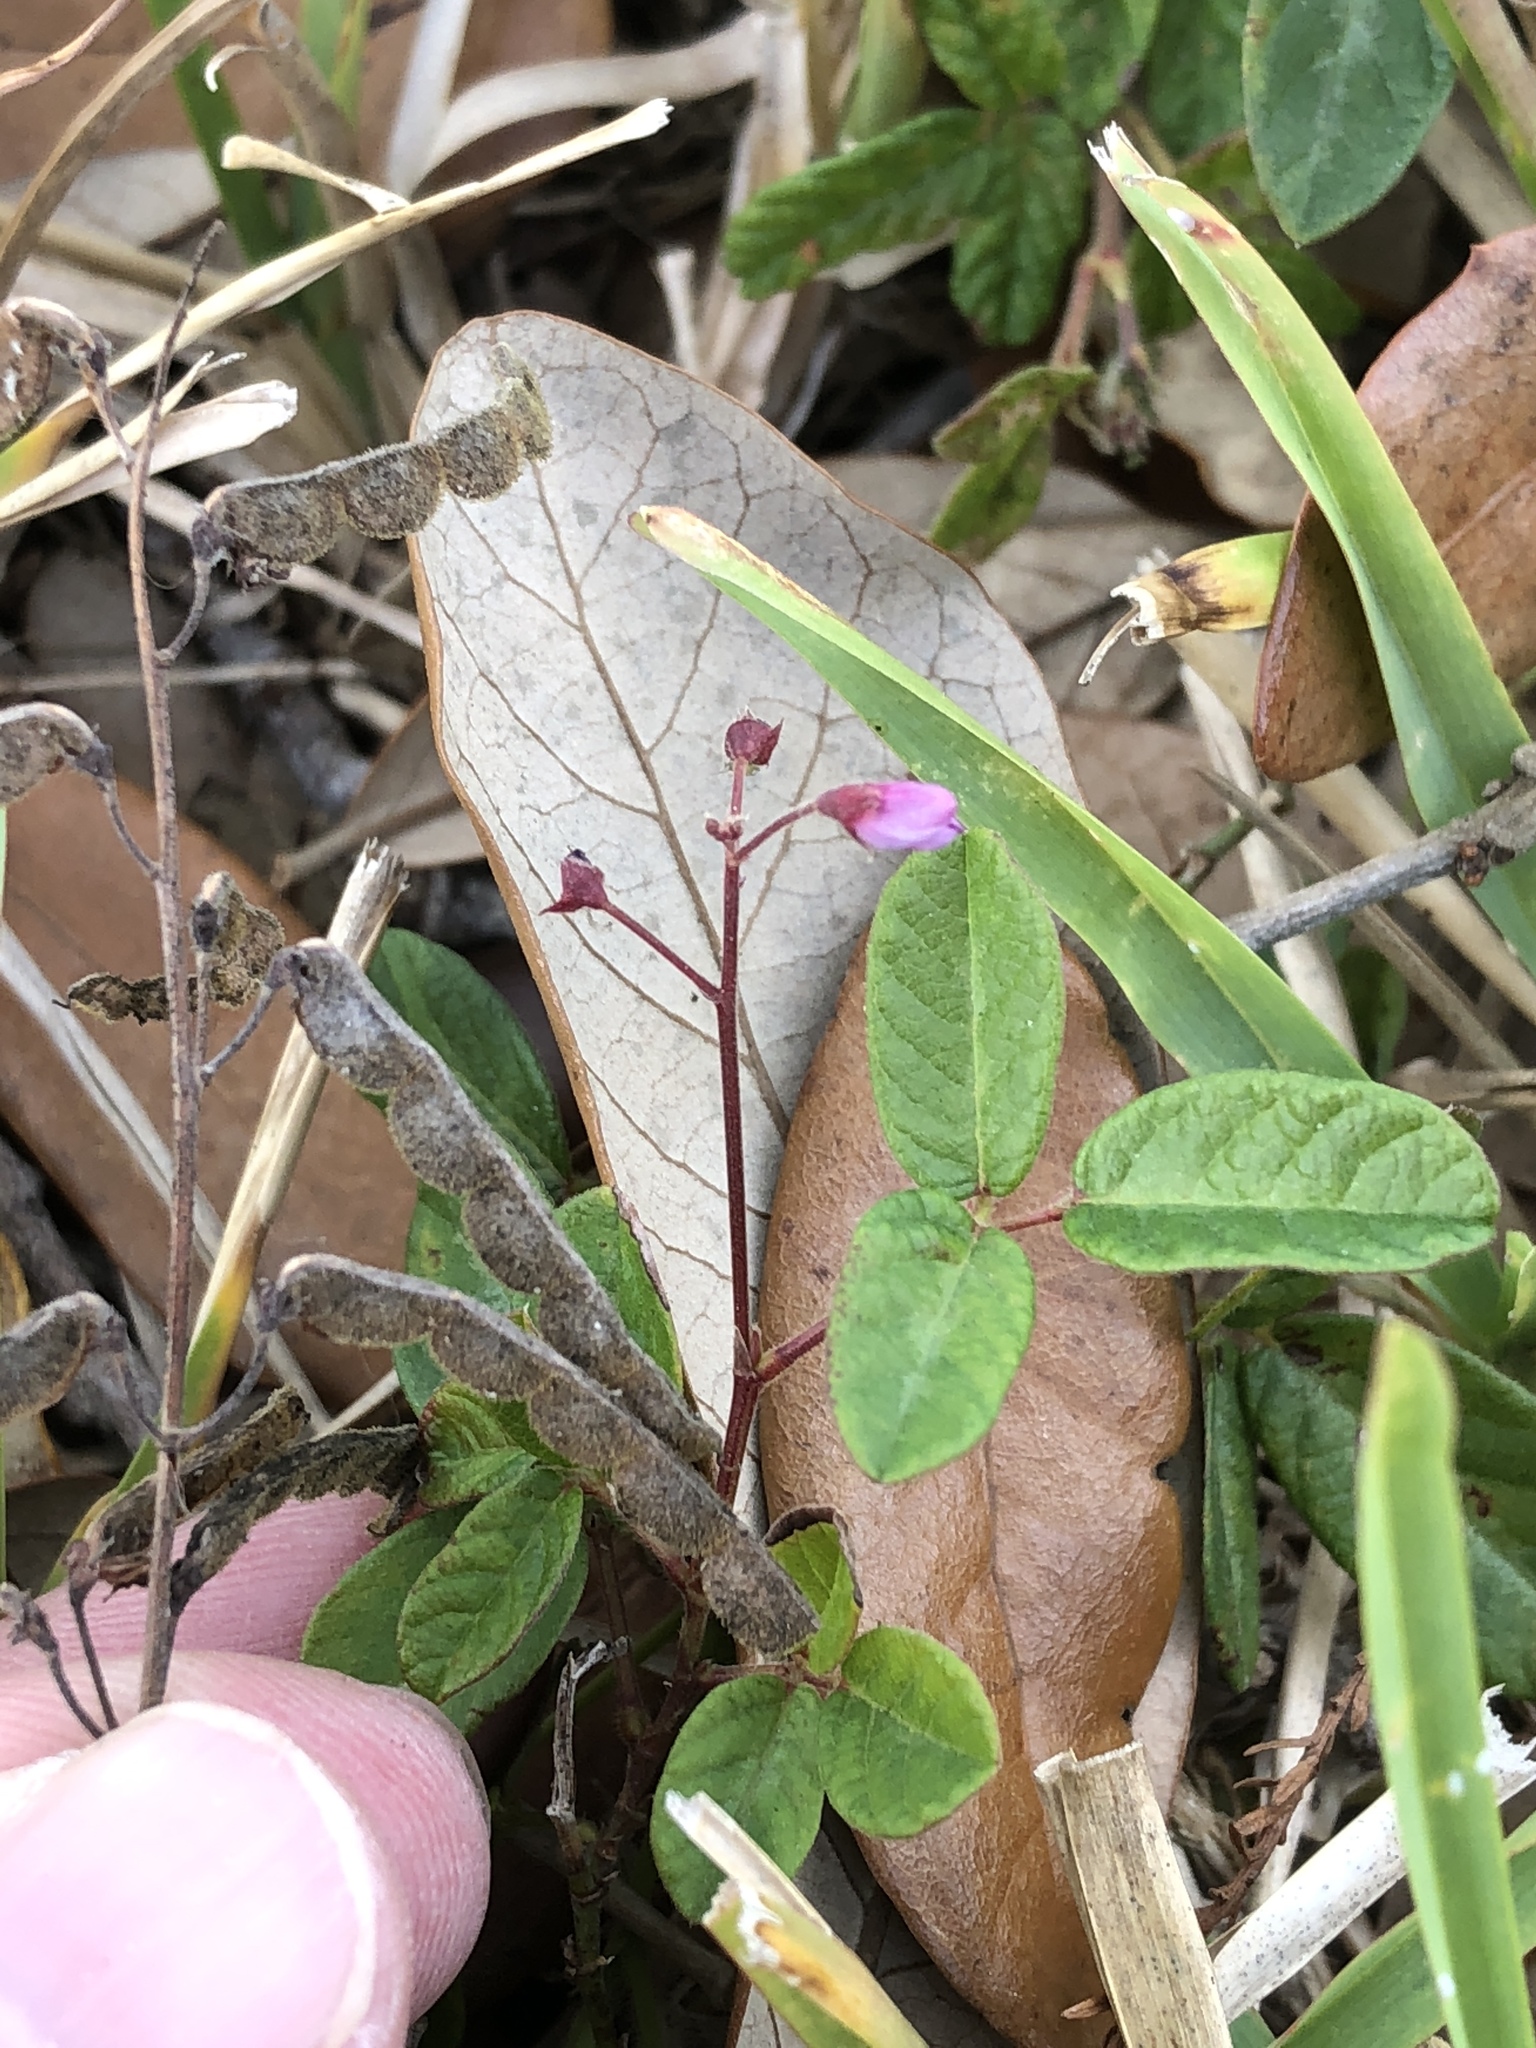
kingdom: Plantae
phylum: Tracheophyta
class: Magnoliopsida
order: Fabales
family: Fabaceae
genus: Desmodium
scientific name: Desmodium incanum
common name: Tickclover
